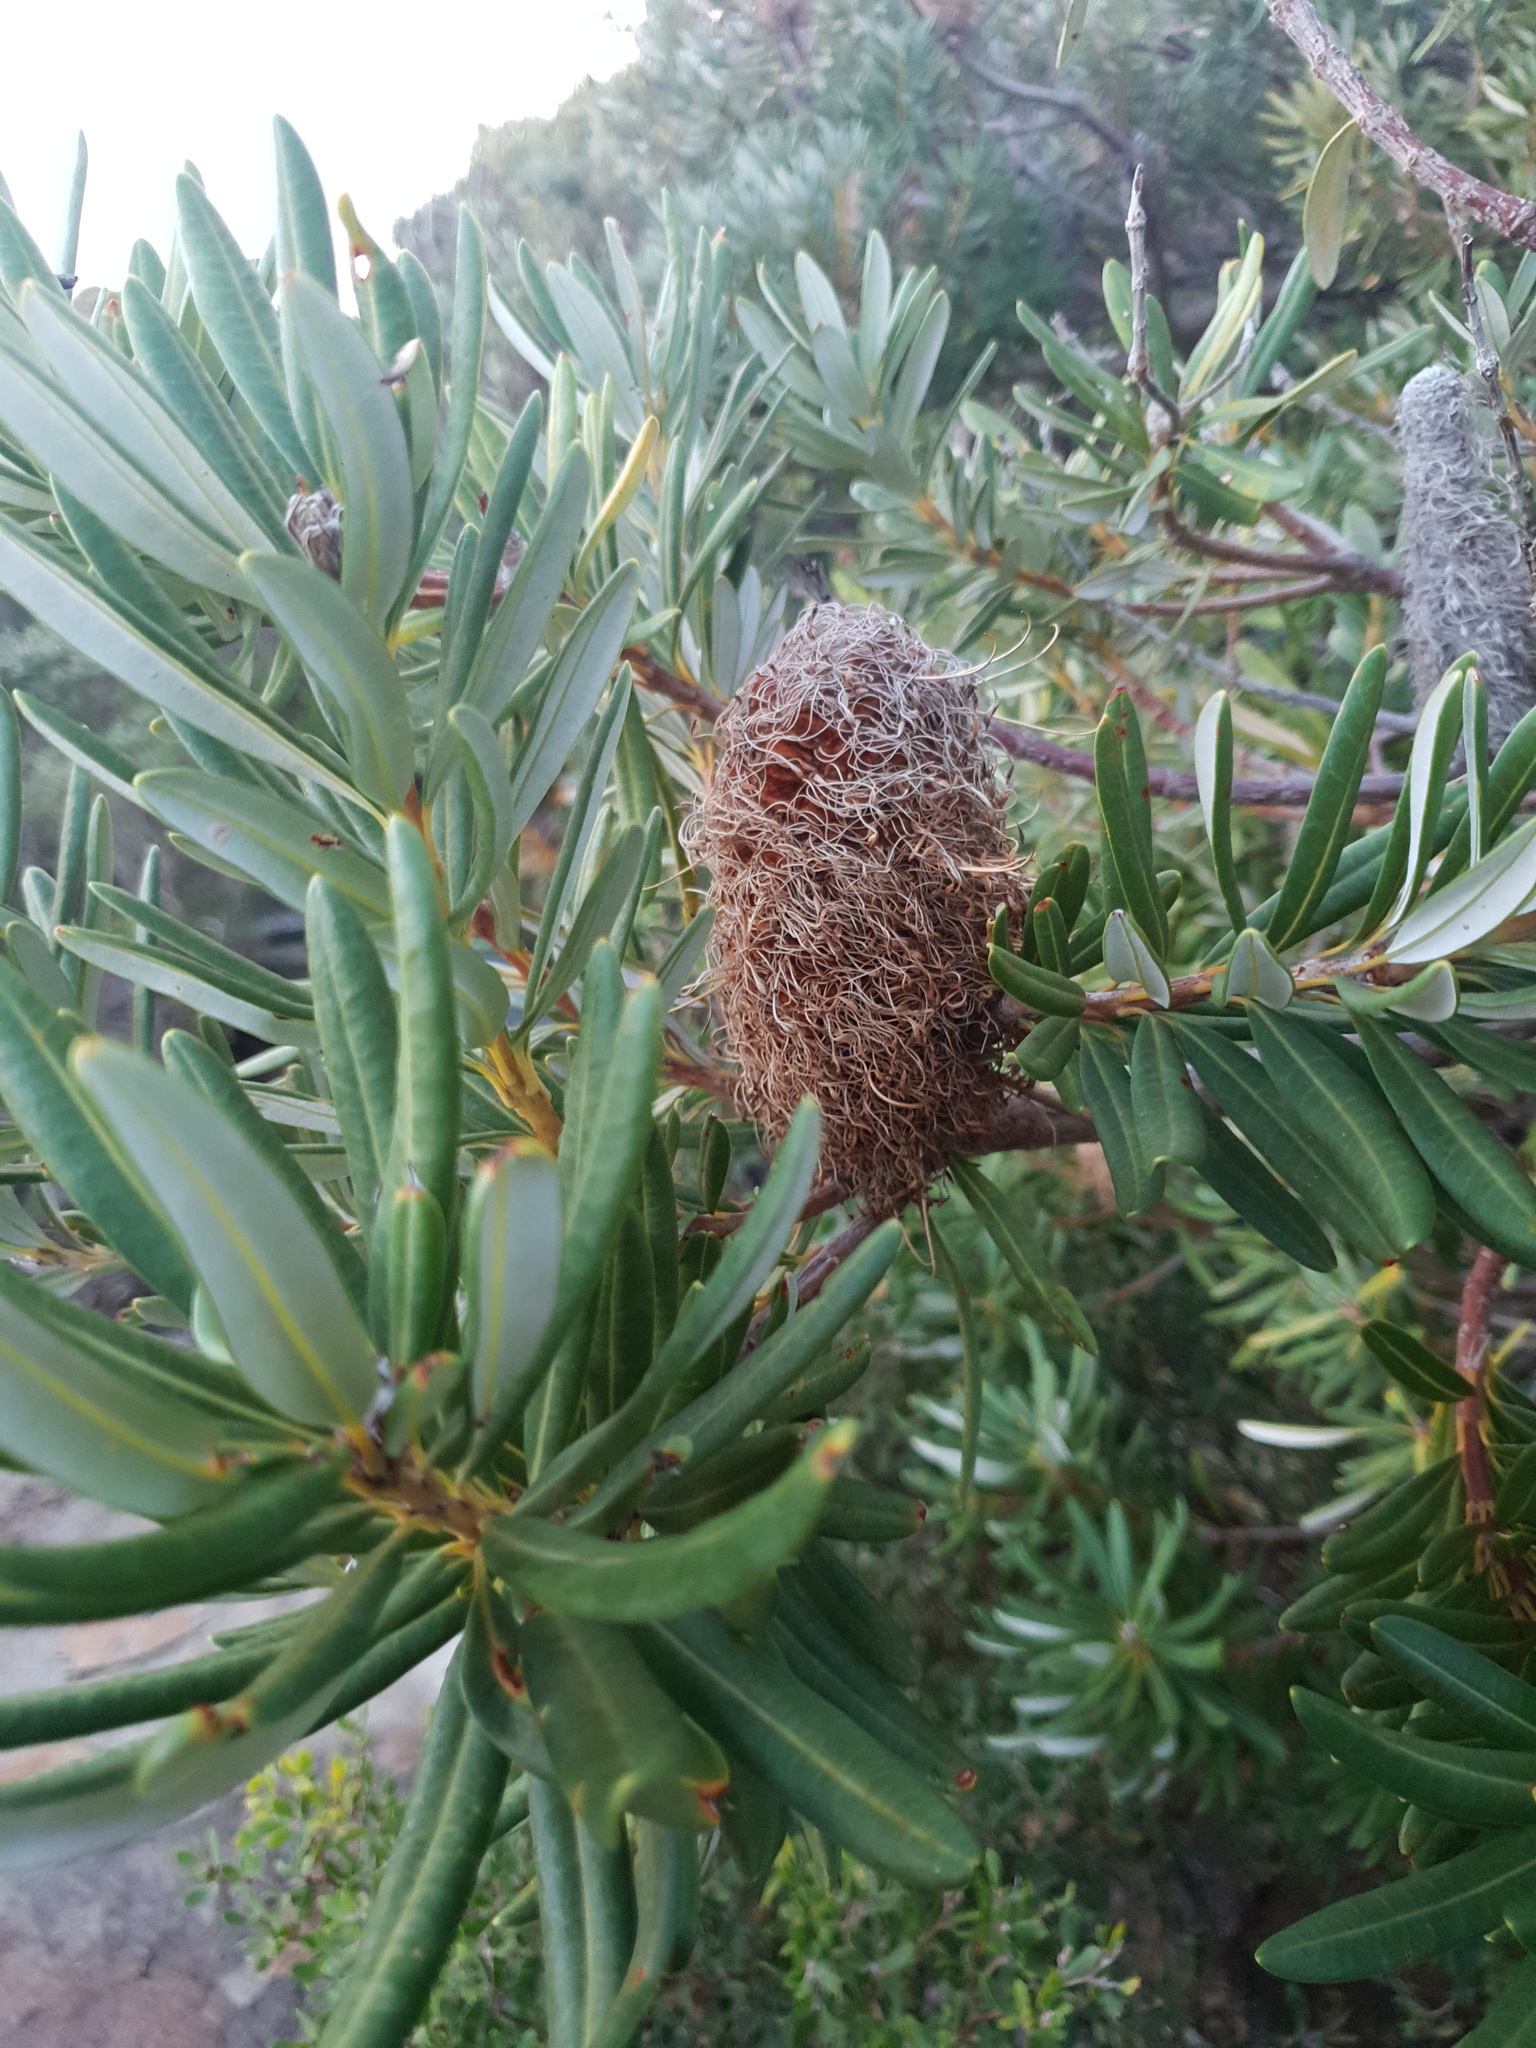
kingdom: Plantae
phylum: Tracheophyta
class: Magnoliopsida
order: Proteales
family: Proteaceae
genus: Banksia
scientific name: Banksia verticiliata
